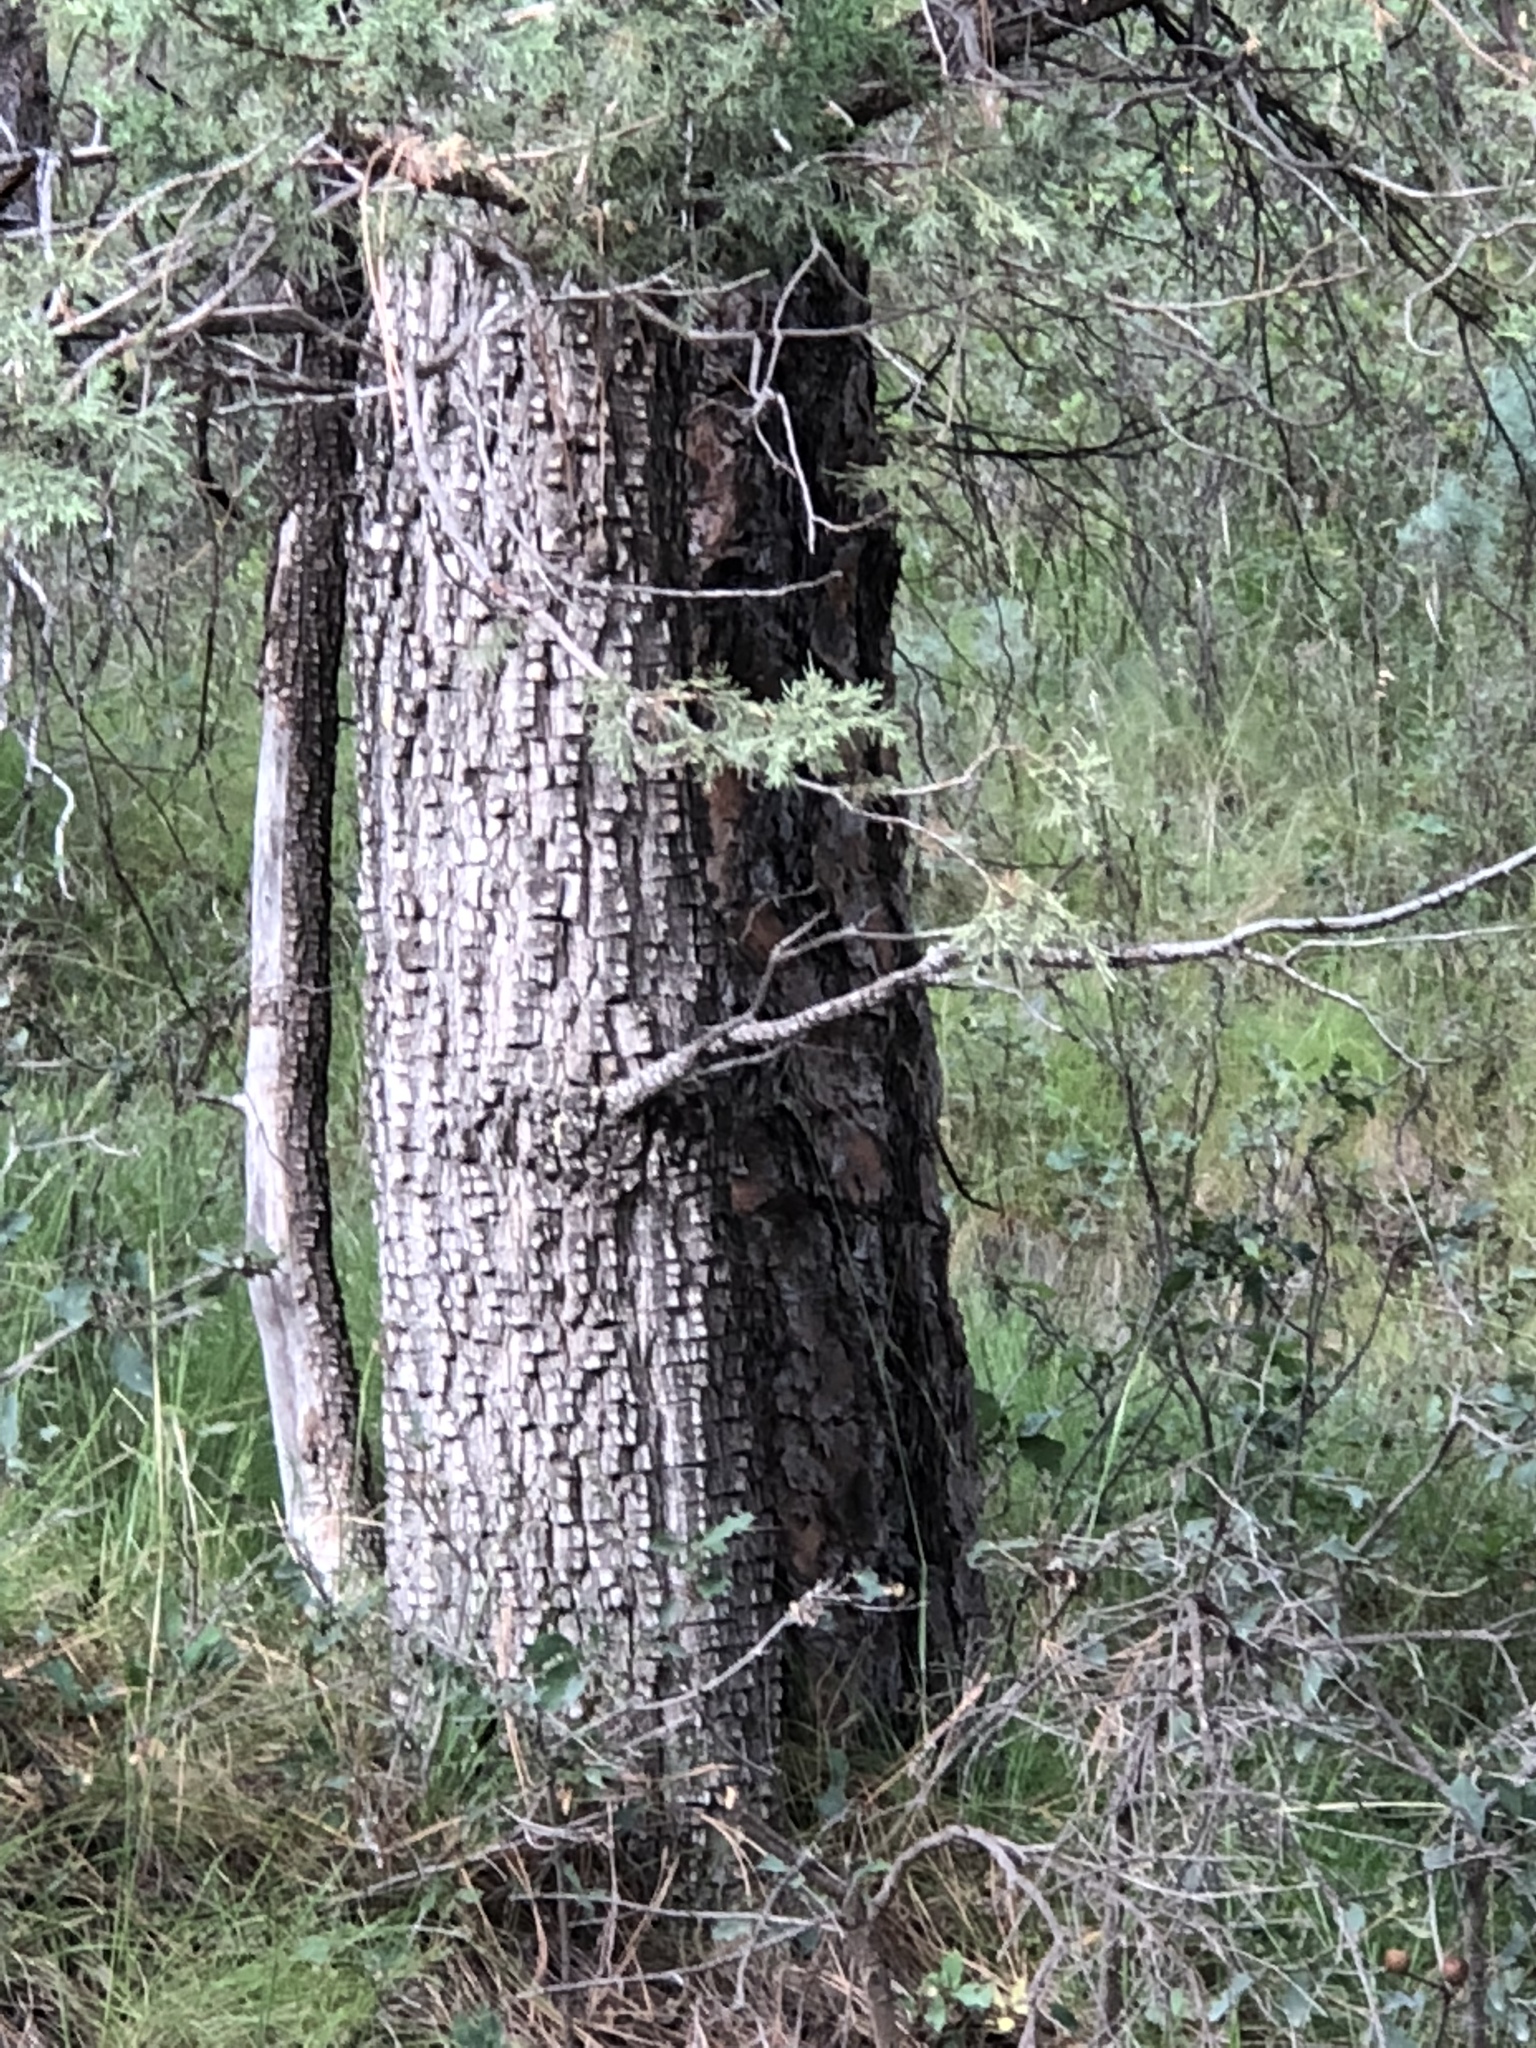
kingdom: Plantae
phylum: Tracheophyta
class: Pinopsida
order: Pinales
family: Cupressaceae
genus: Juniperus
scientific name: Juniperus deppeana
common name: Alligator juniper
